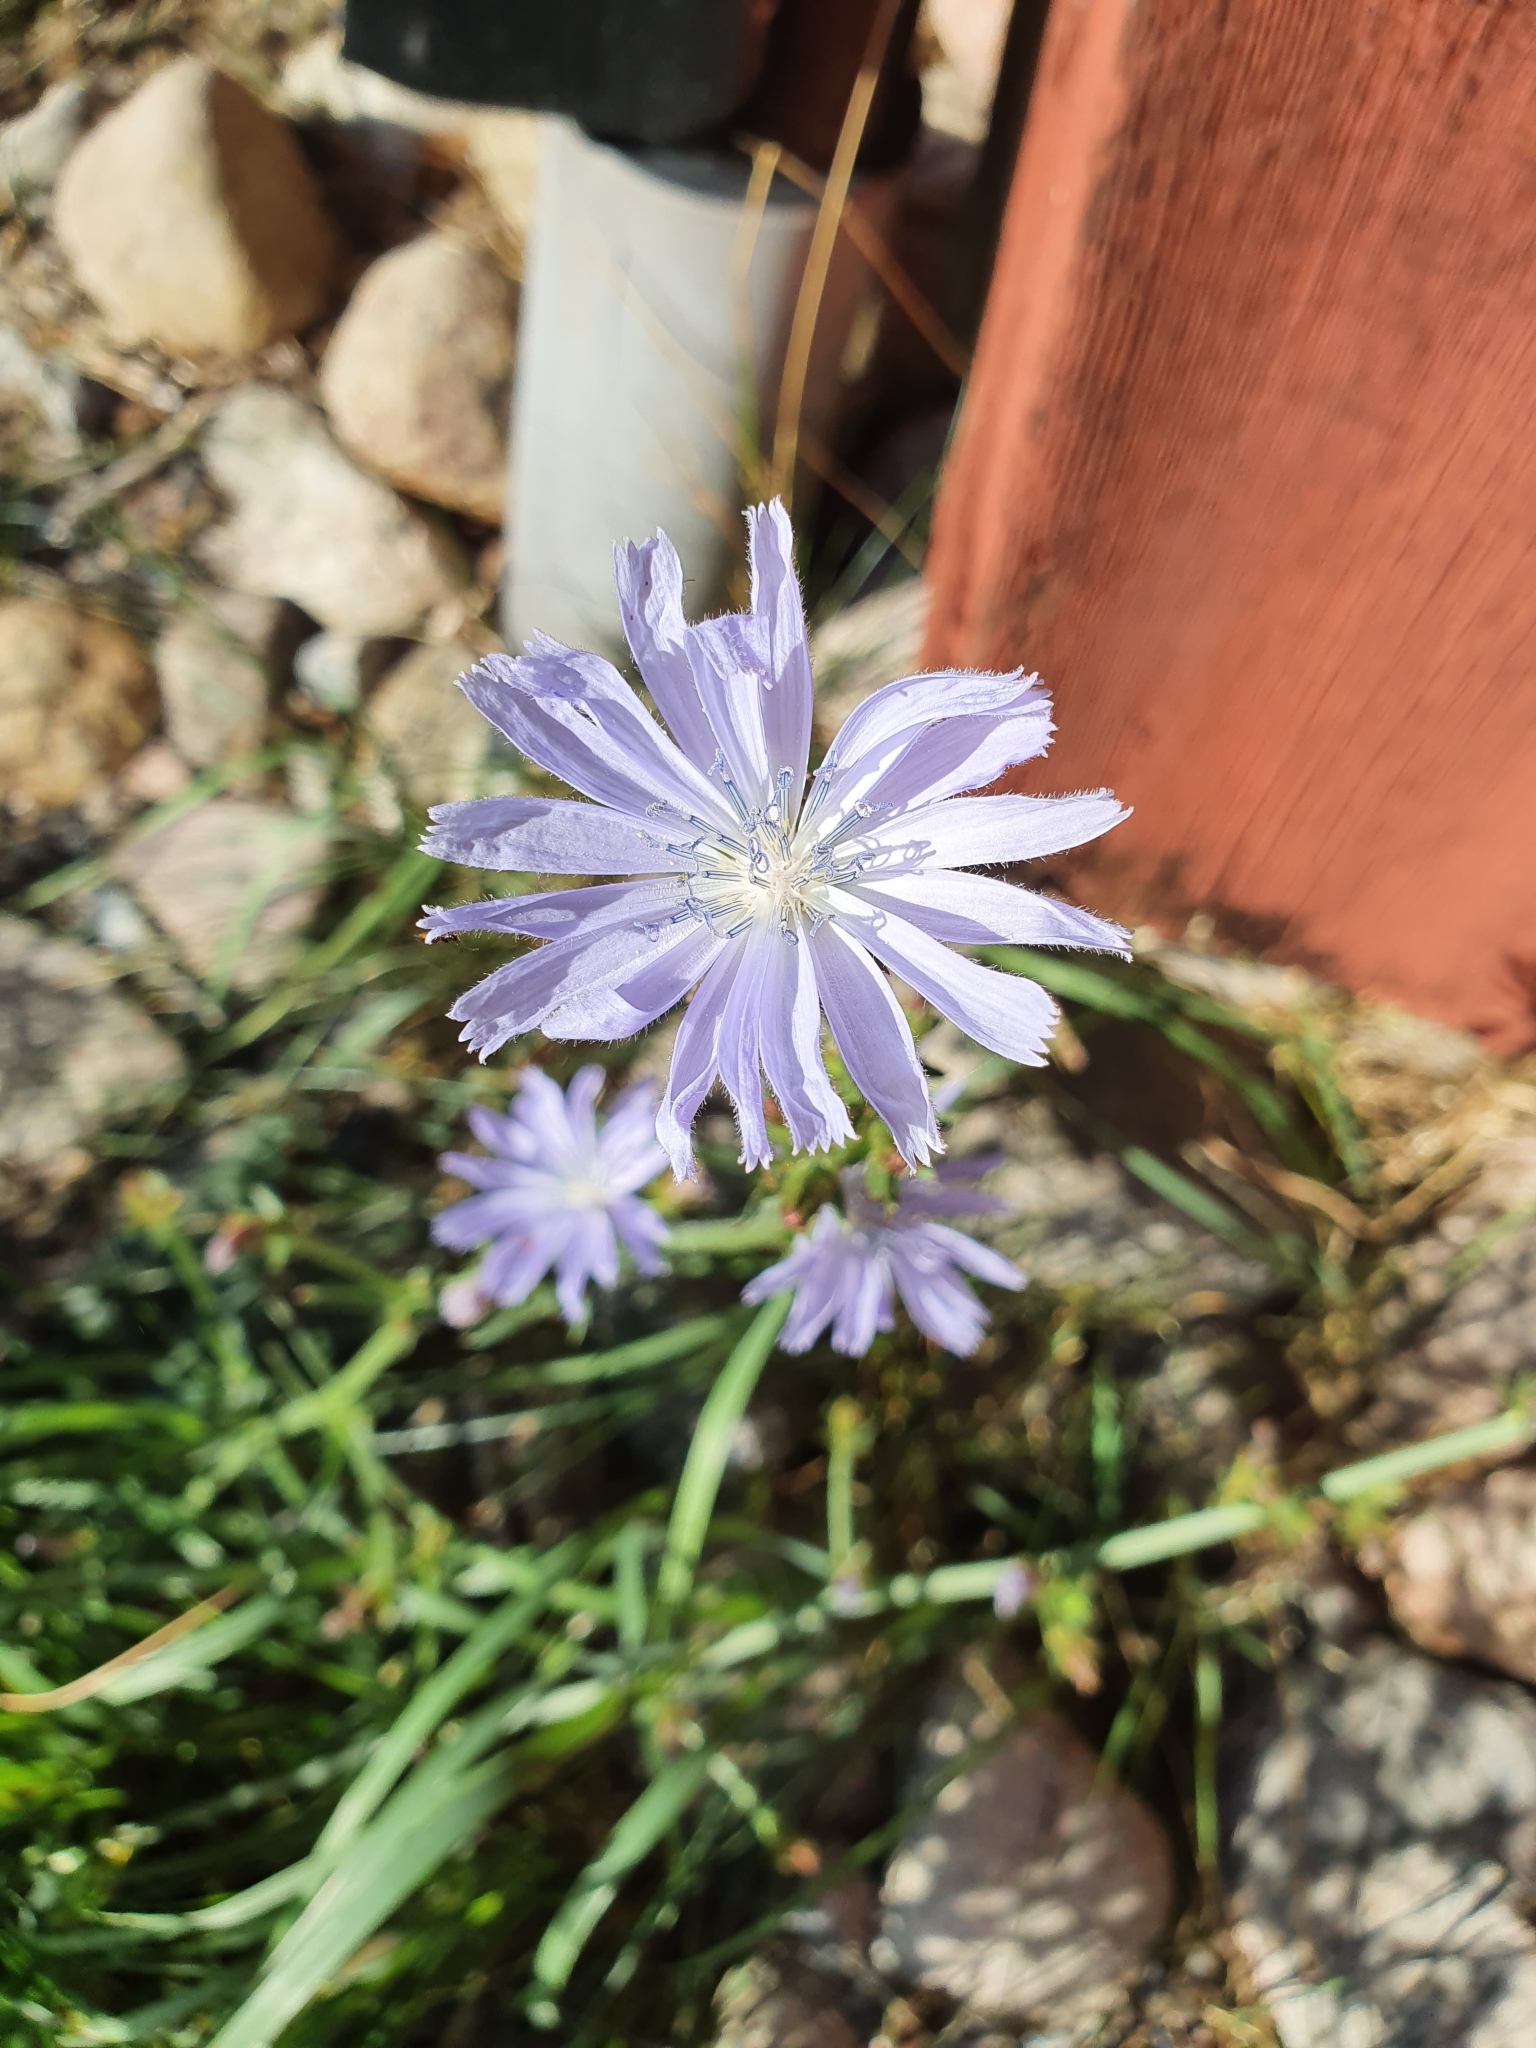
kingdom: Plantae
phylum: Tracheophyta
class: Magnoliopsida
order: Asterales
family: Asteraceae
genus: Cichorium
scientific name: Cichorium intybus
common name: Chicory
